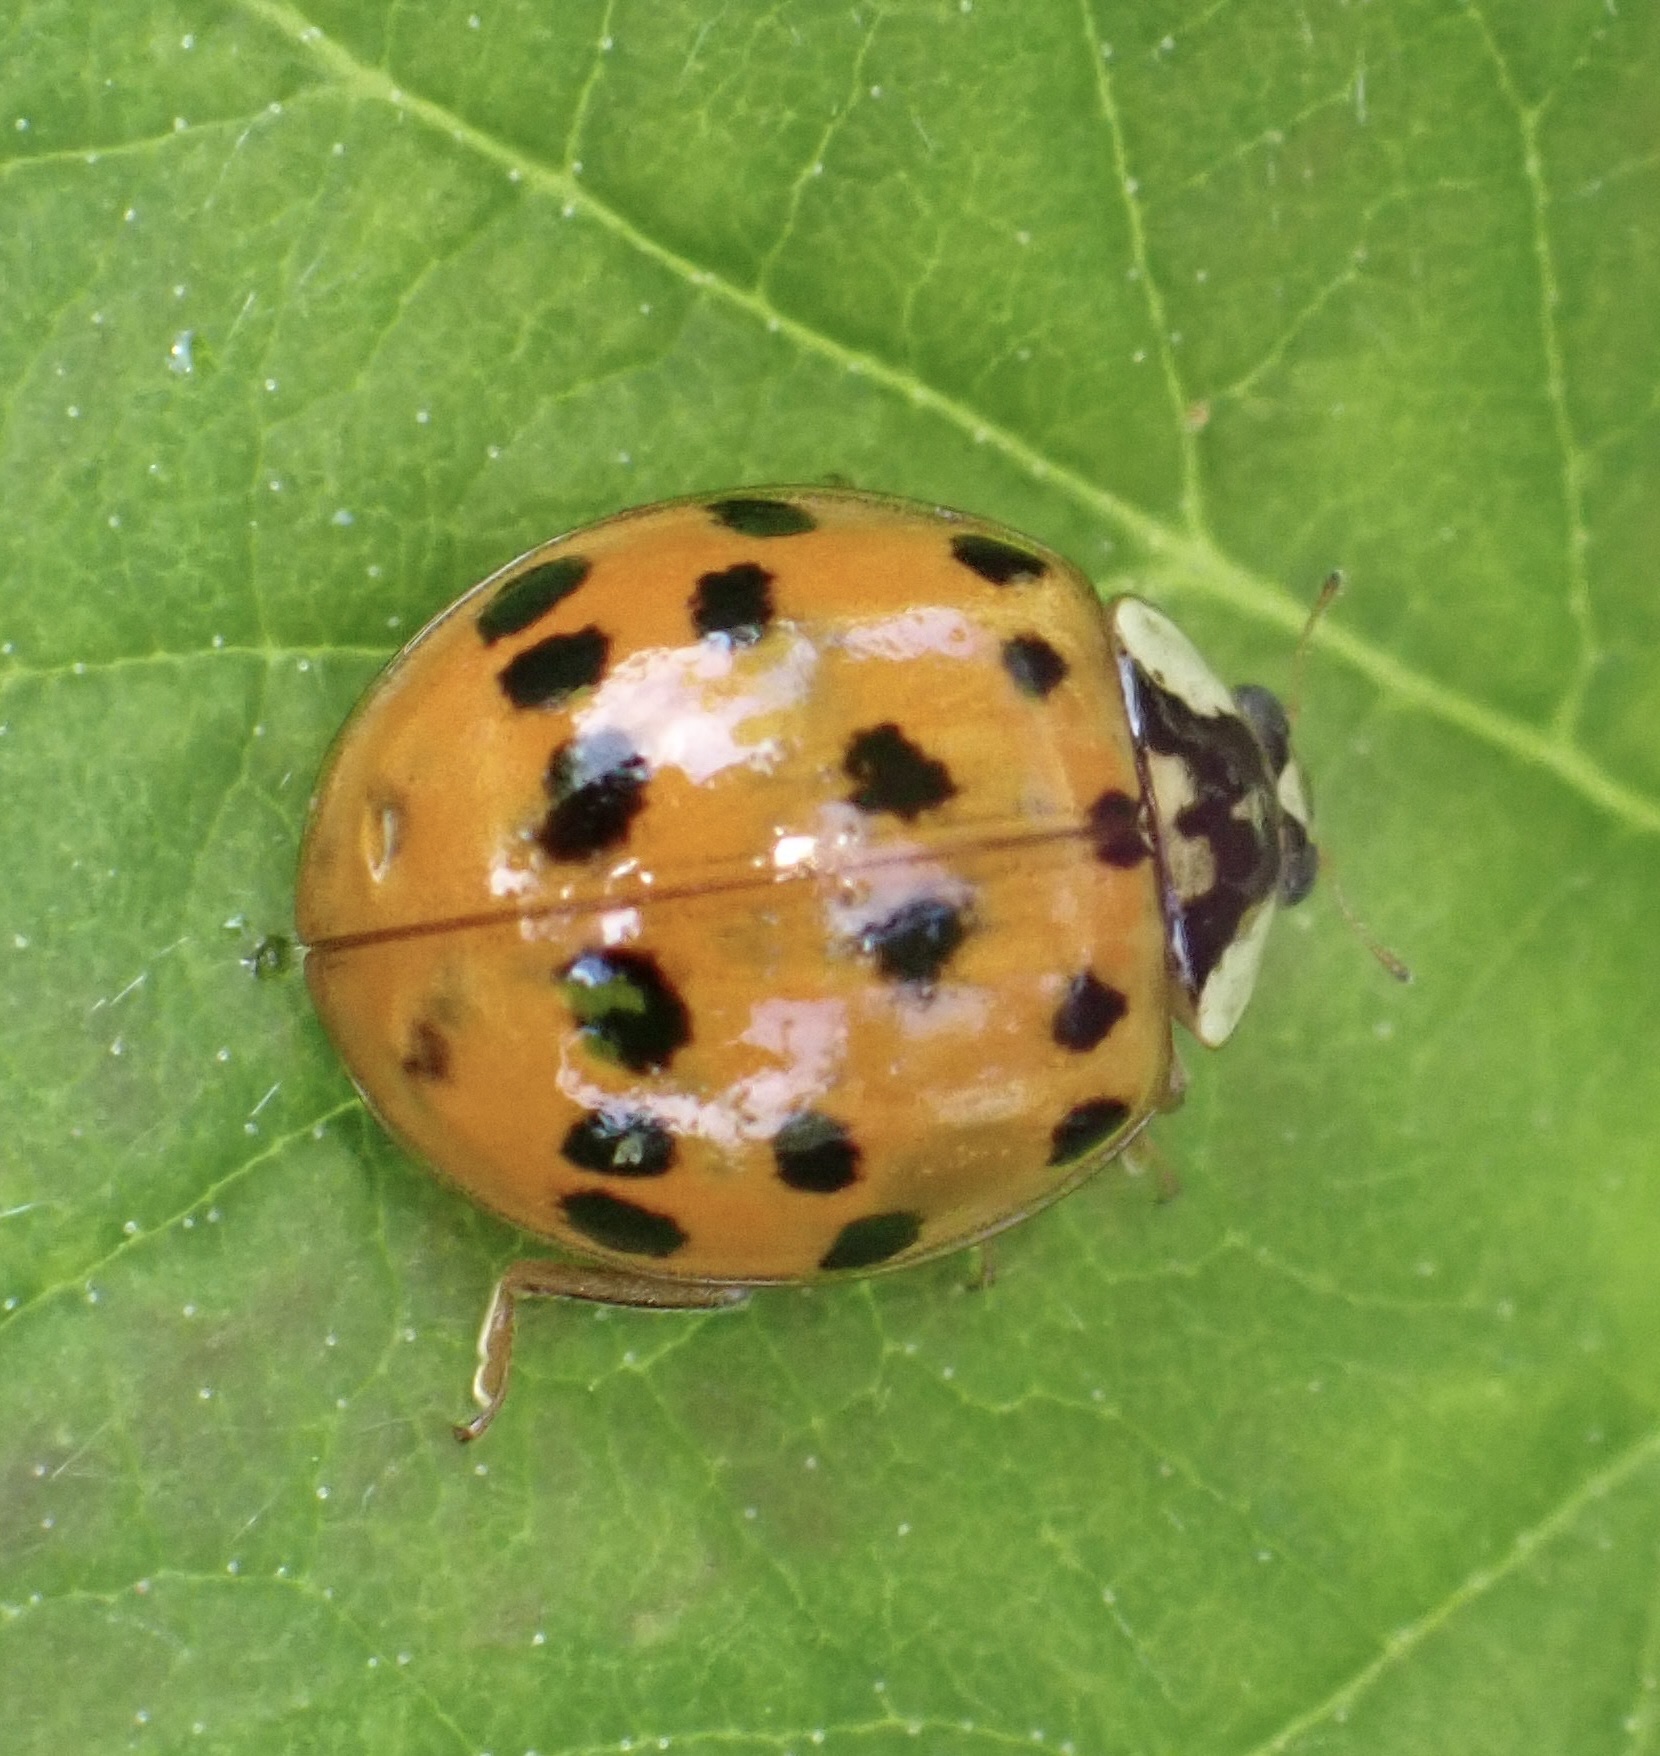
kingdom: Animalia
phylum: Arthropoda
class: Insecta
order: Coleoptera
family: Coccinellidae
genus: Harmonia
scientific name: Harmonia axyridis
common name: Harlequin ladybird
